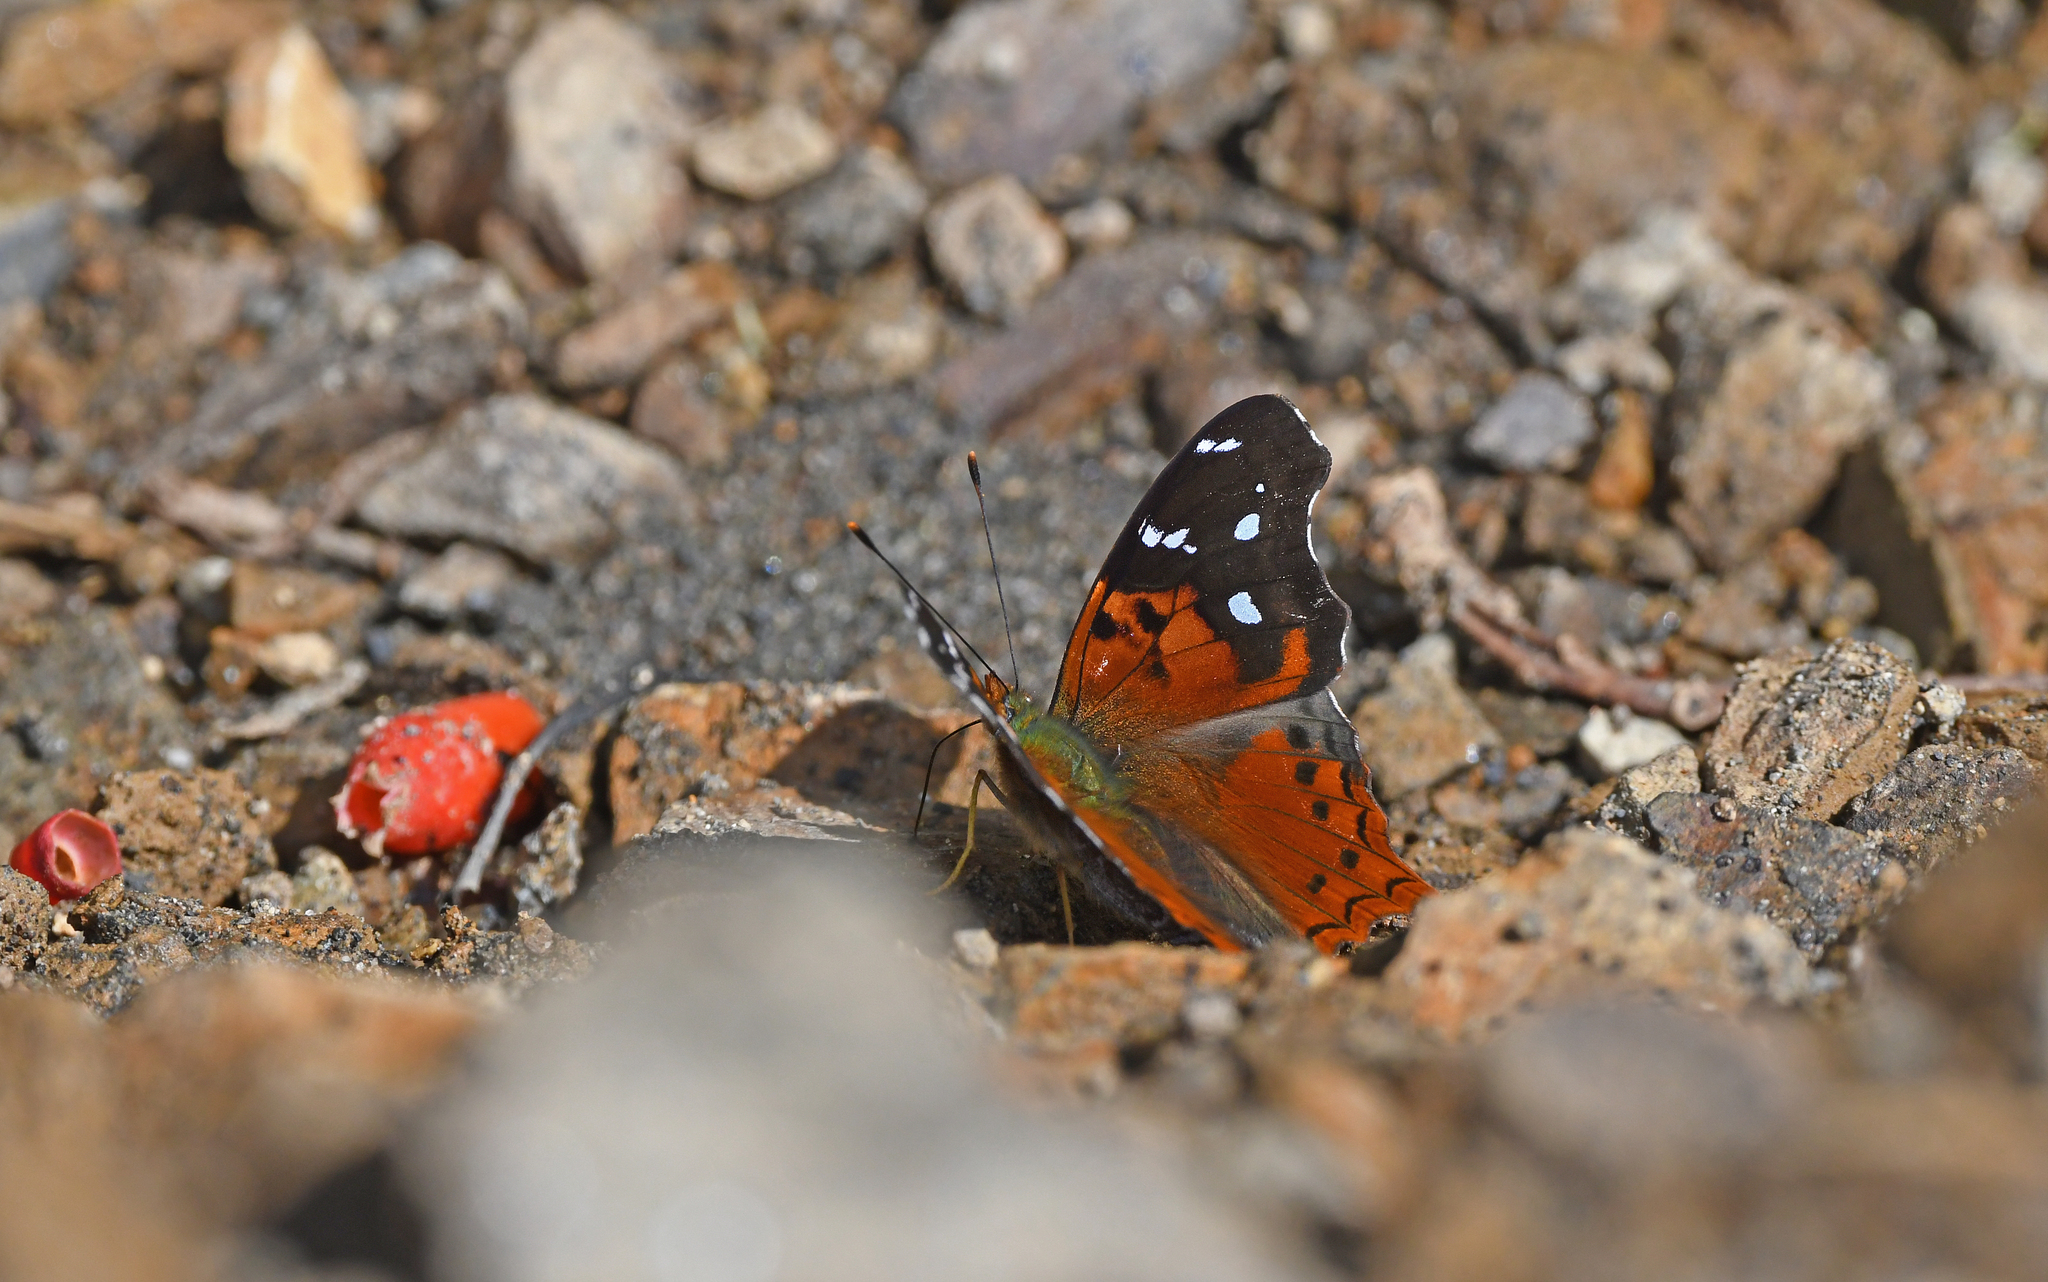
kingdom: Animalia
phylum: Arthropoda
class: Insecta
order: Lepidoptera
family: Nymphalidae
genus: Hypanartia
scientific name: Hypanartia cinderella
